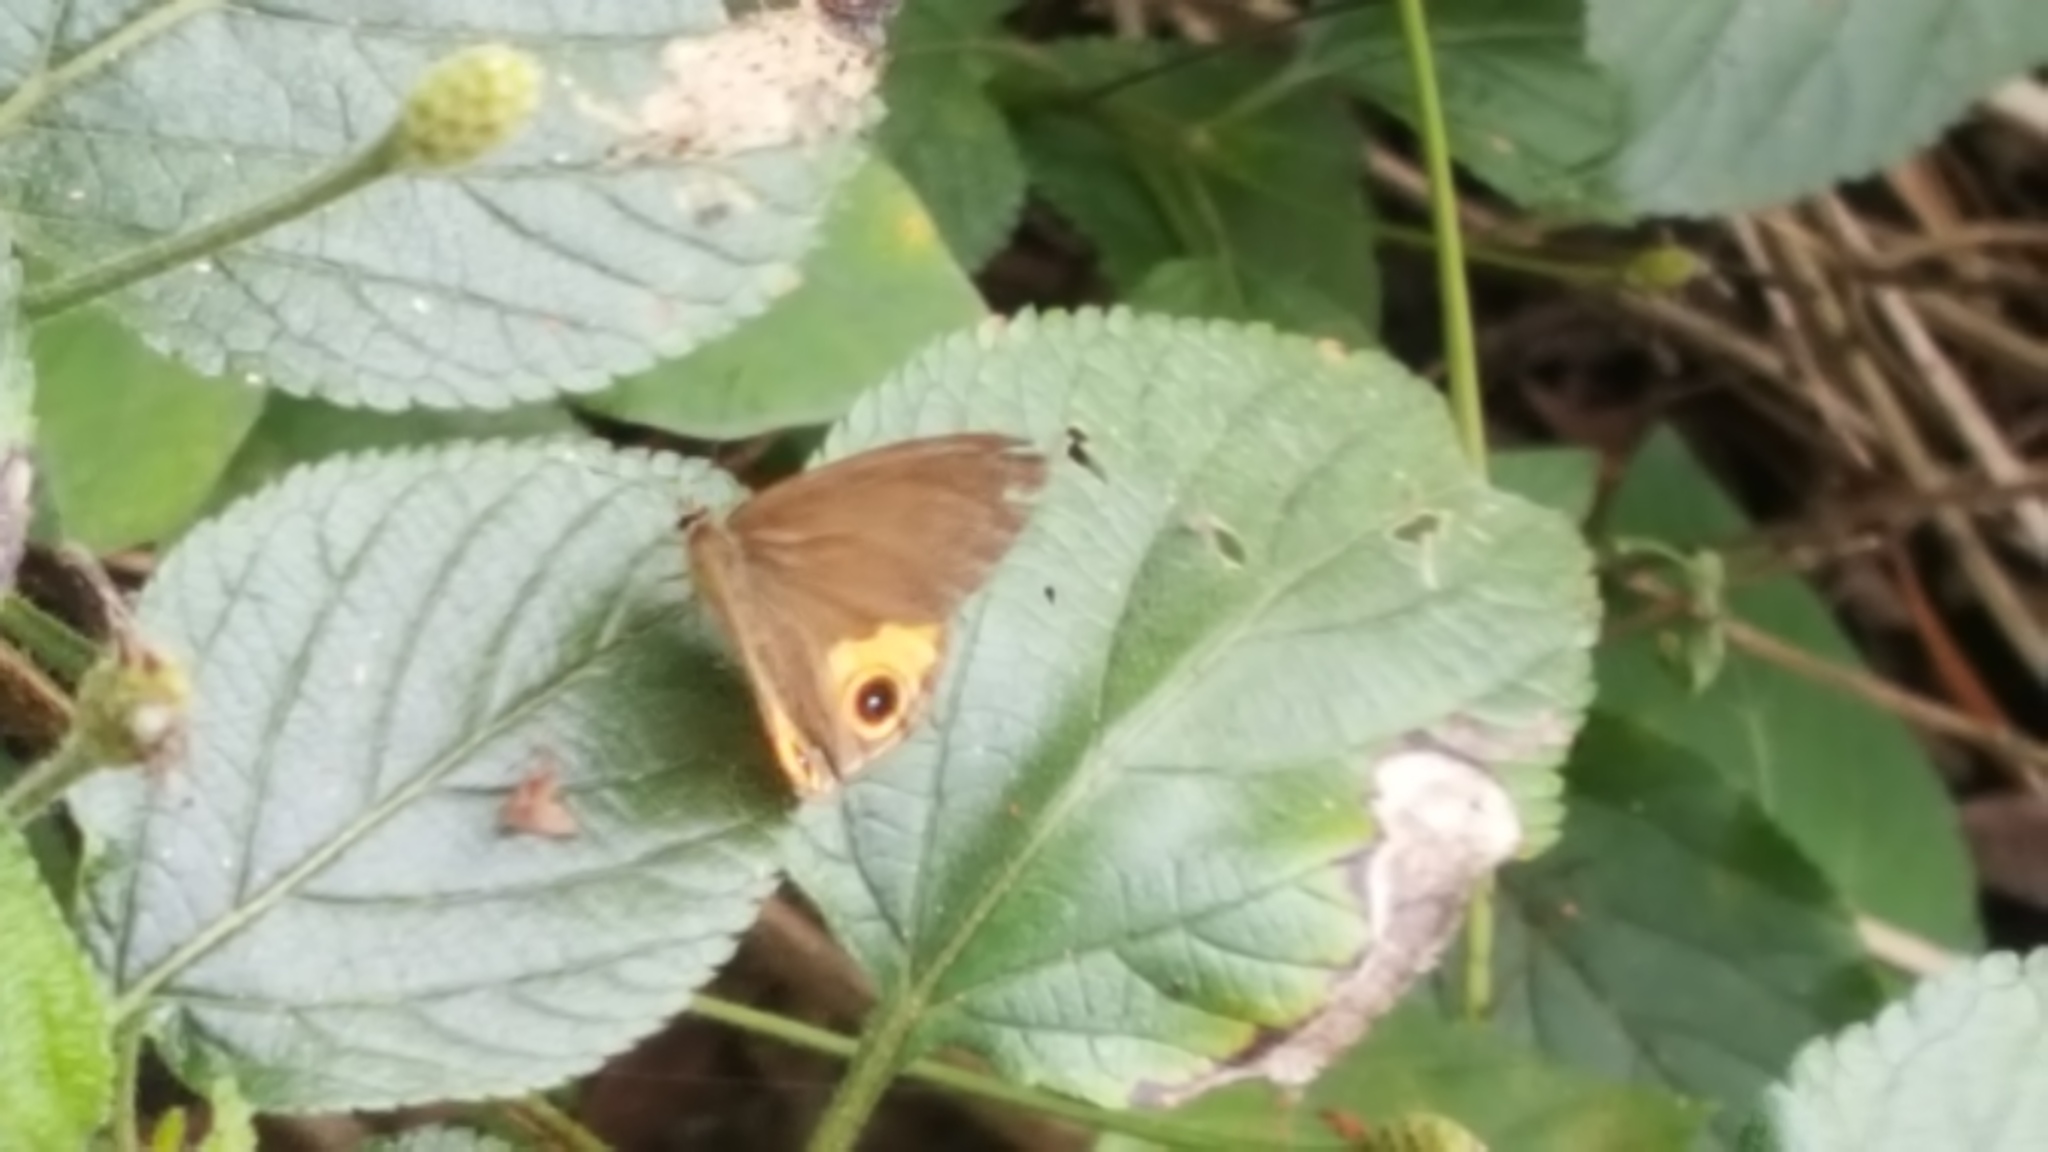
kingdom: Animalia
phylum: Arthropoda
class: Insecta
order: Lepidoptera
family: Nymphalidae
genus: Hypocysta
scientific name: Hypocysta metirius
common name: Brown ringlet
